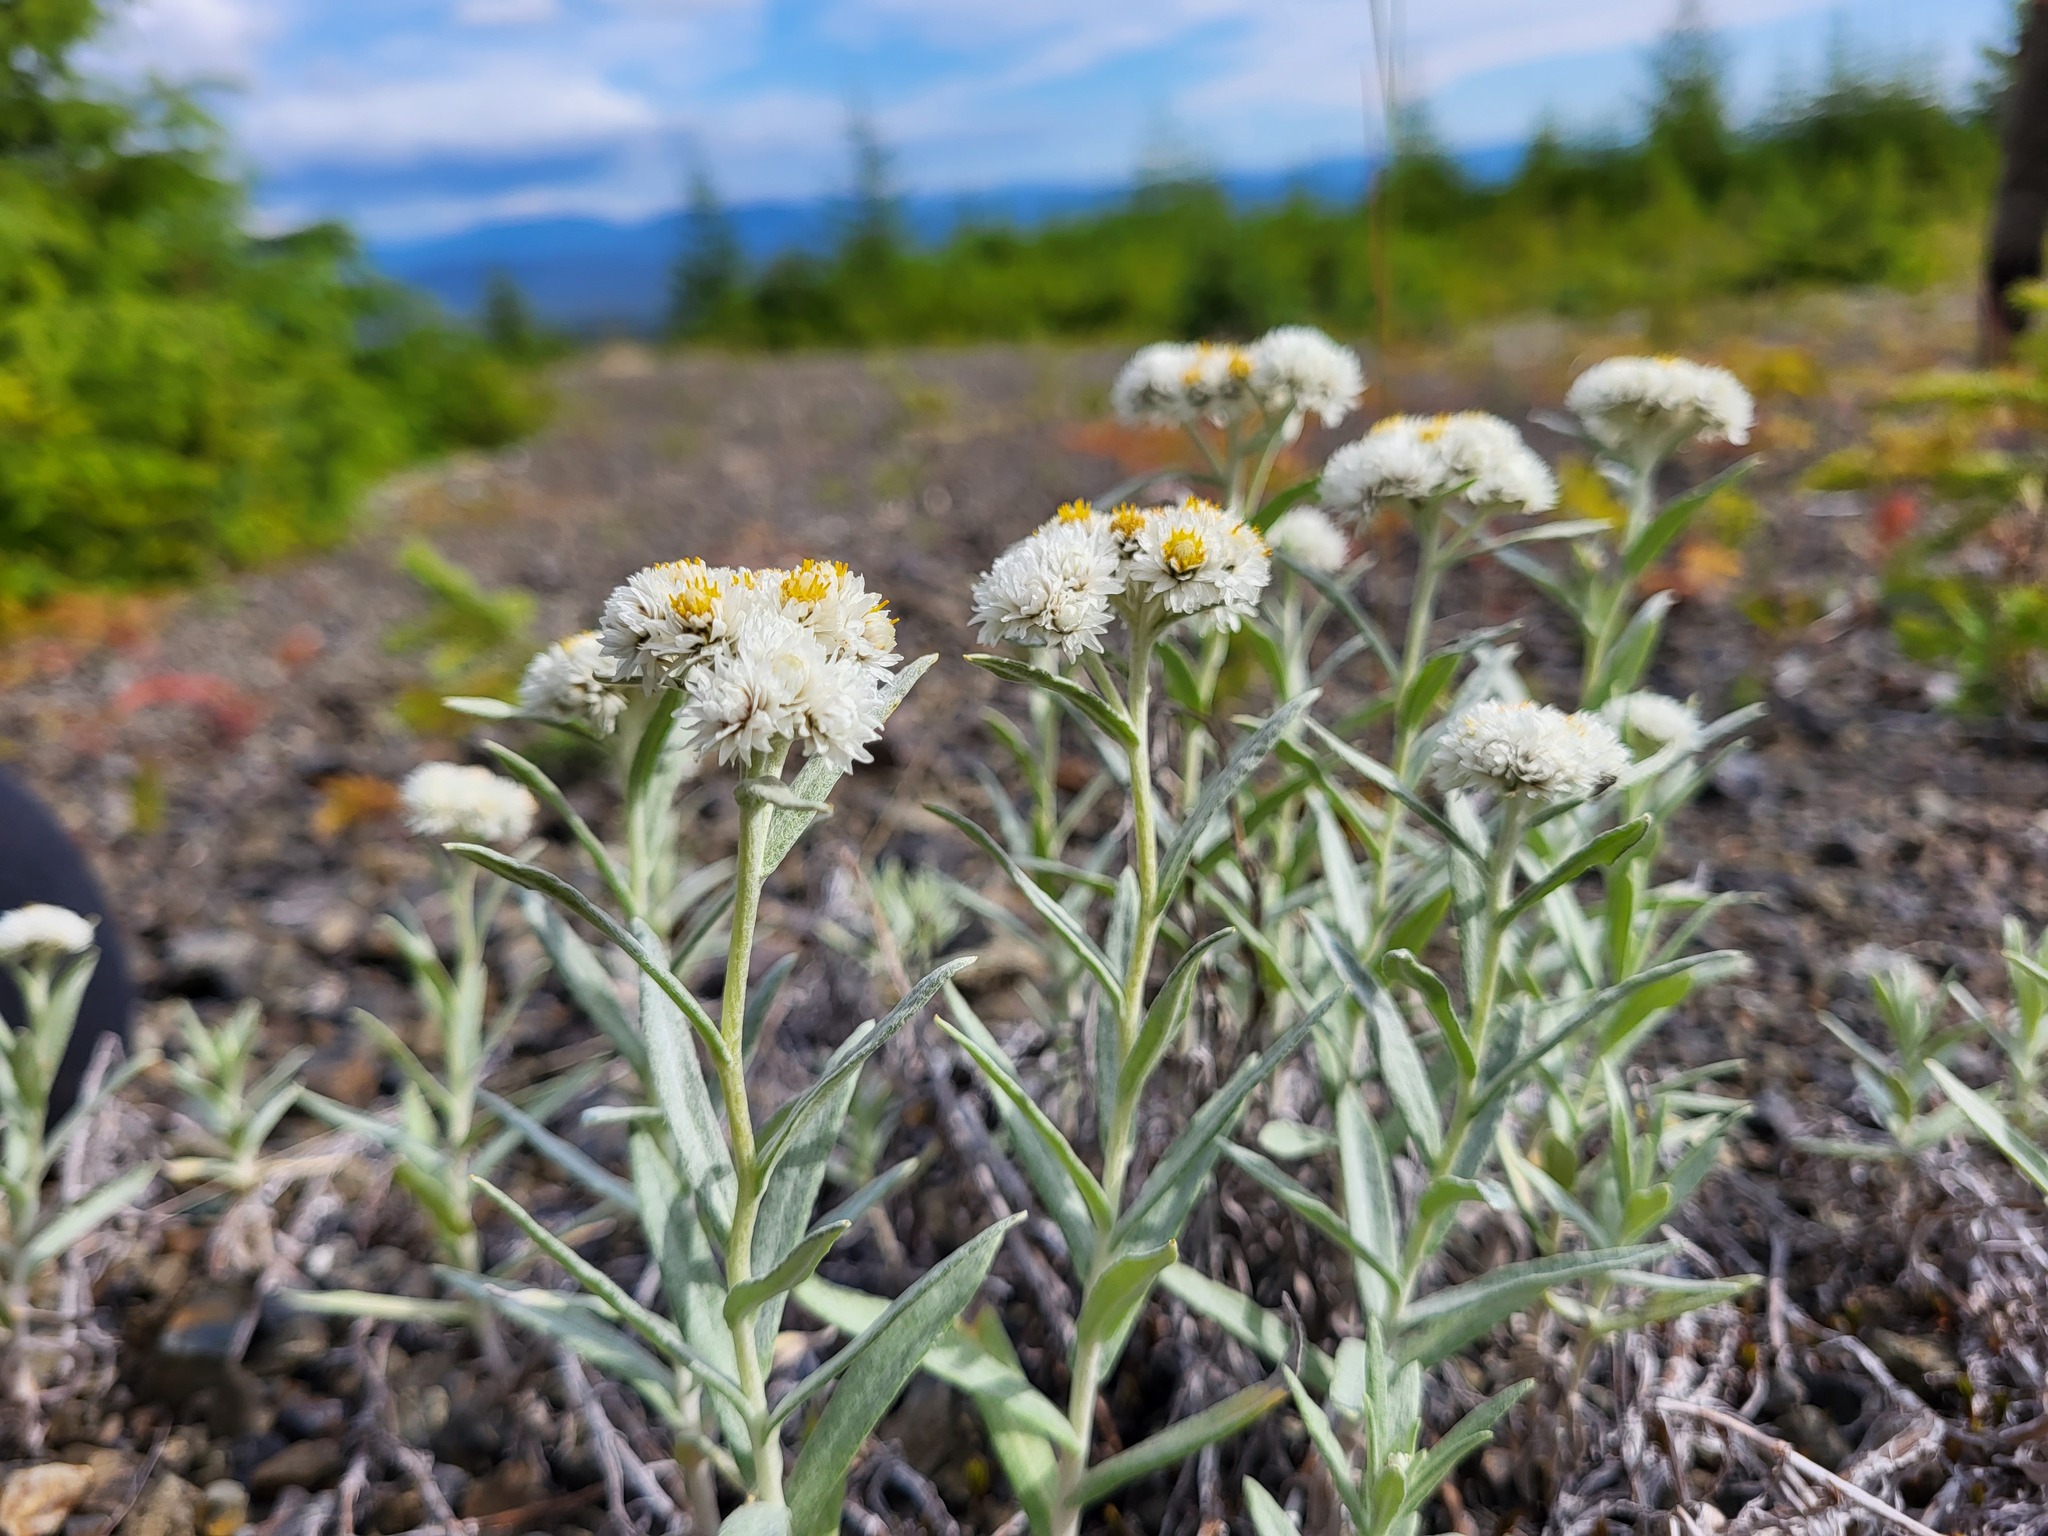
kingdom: Plantae
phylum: Tracheophyta
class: Magnoliopsida
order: Asterales
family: Asteraceae
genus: Anaphalis
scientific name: Anaphalis margaritacea
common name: Pearly everlasting
